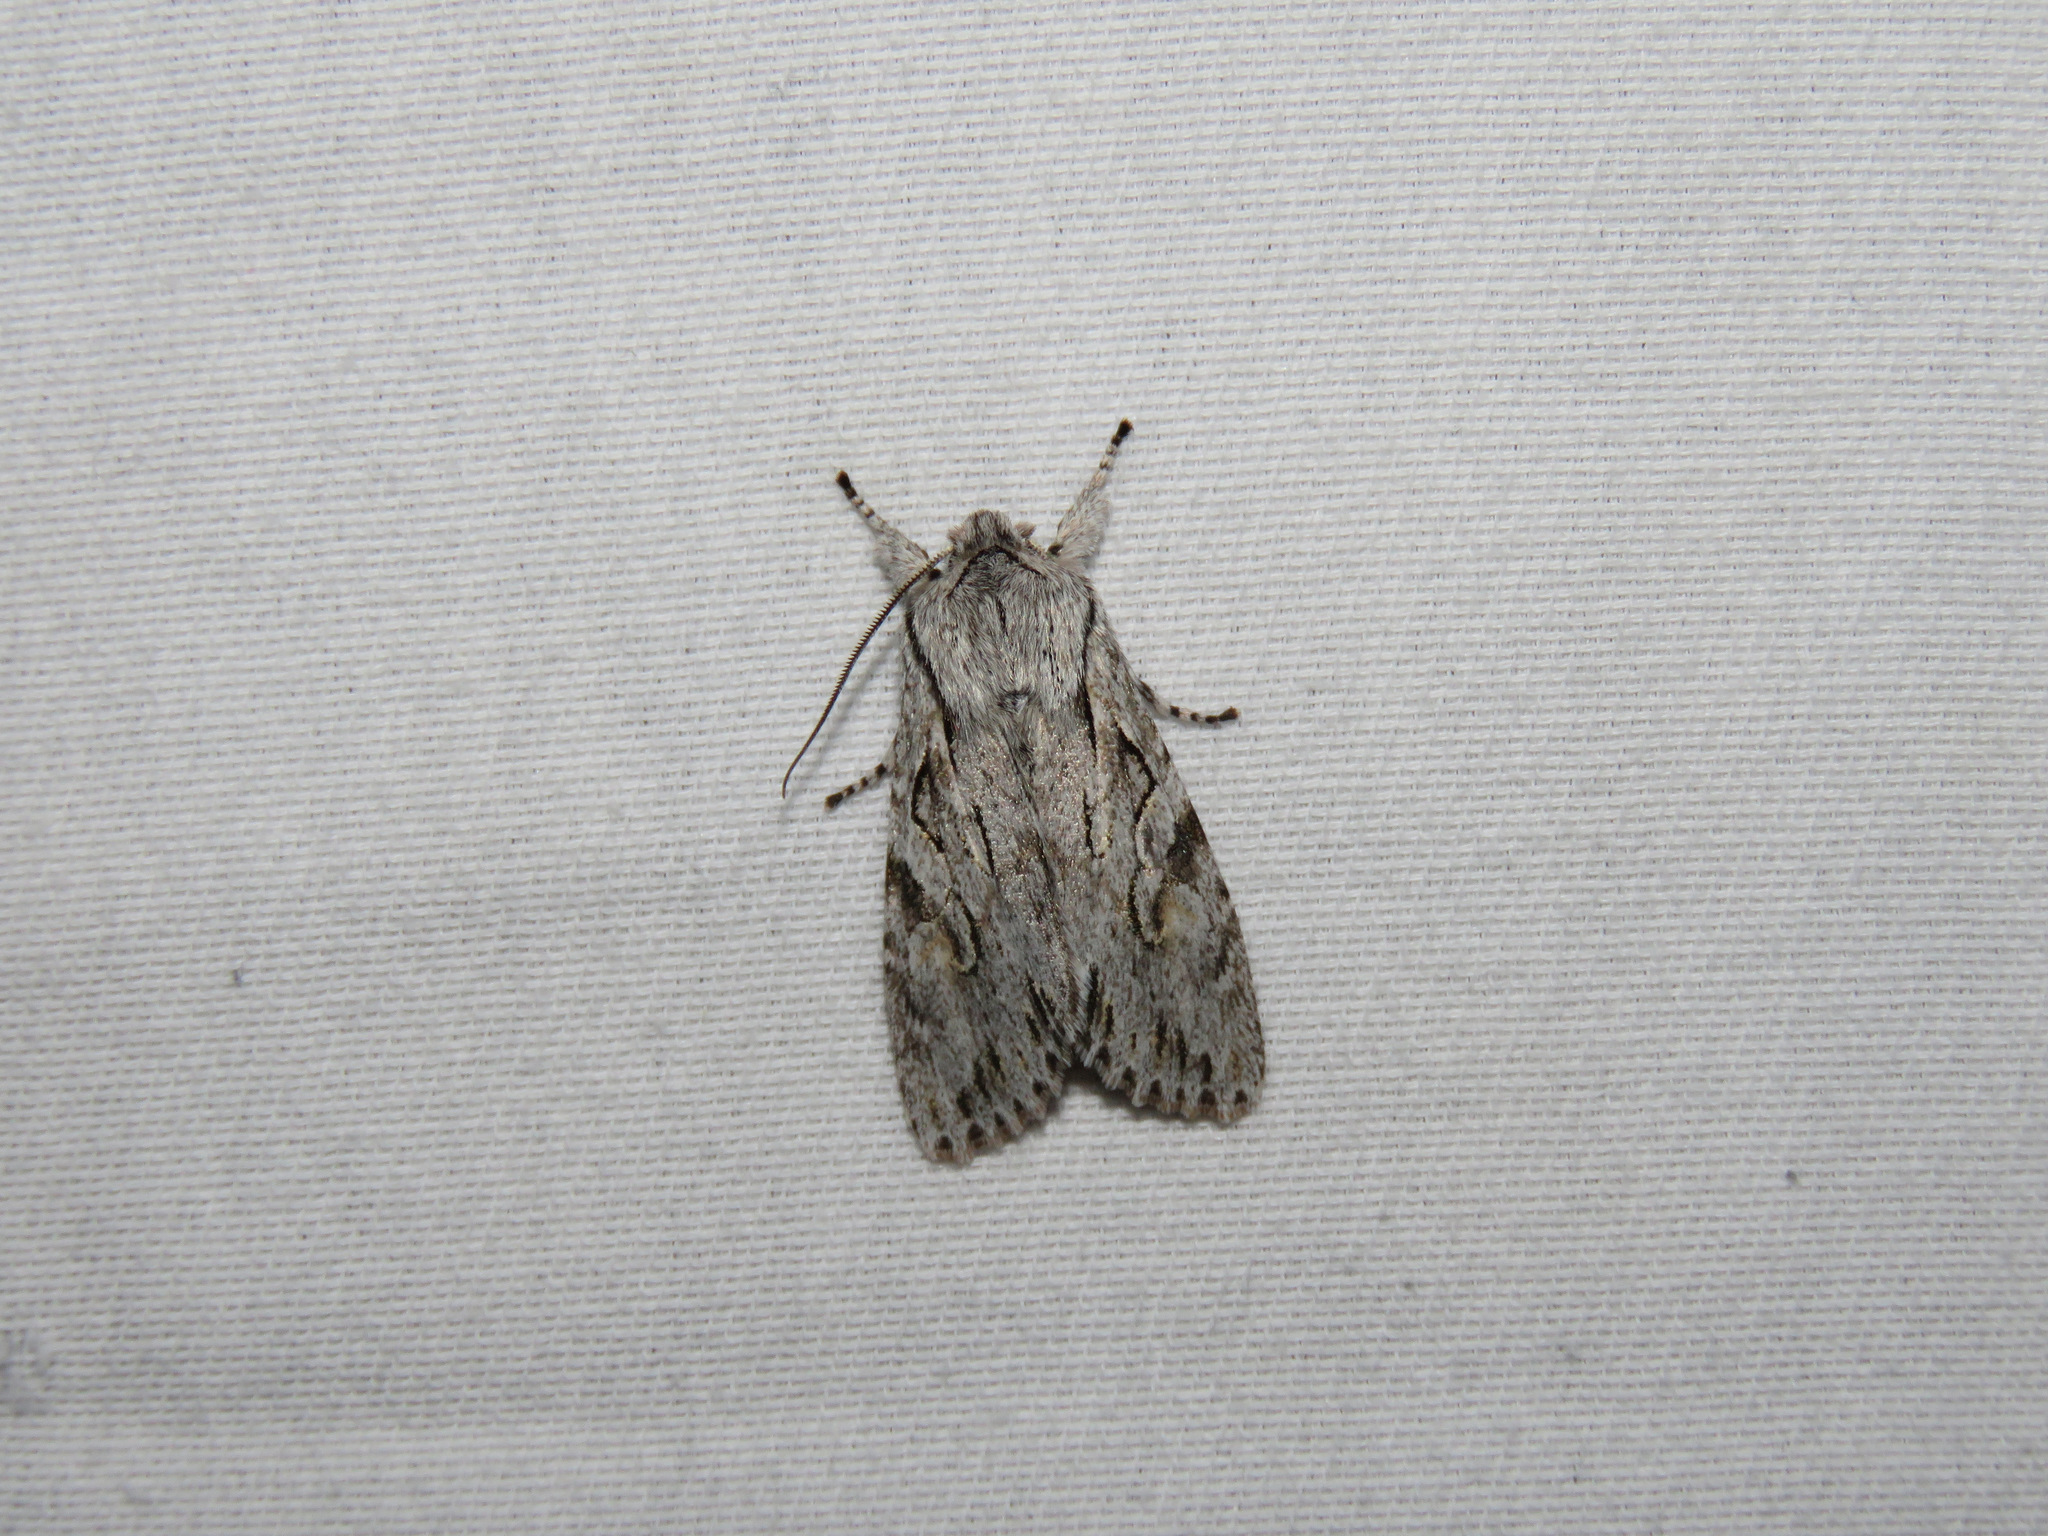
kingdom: Animalia
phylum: Arthropoda
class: Insecta
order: Lepidoptera
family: Noctuidae
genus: Egira
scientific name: Egira crucialis
